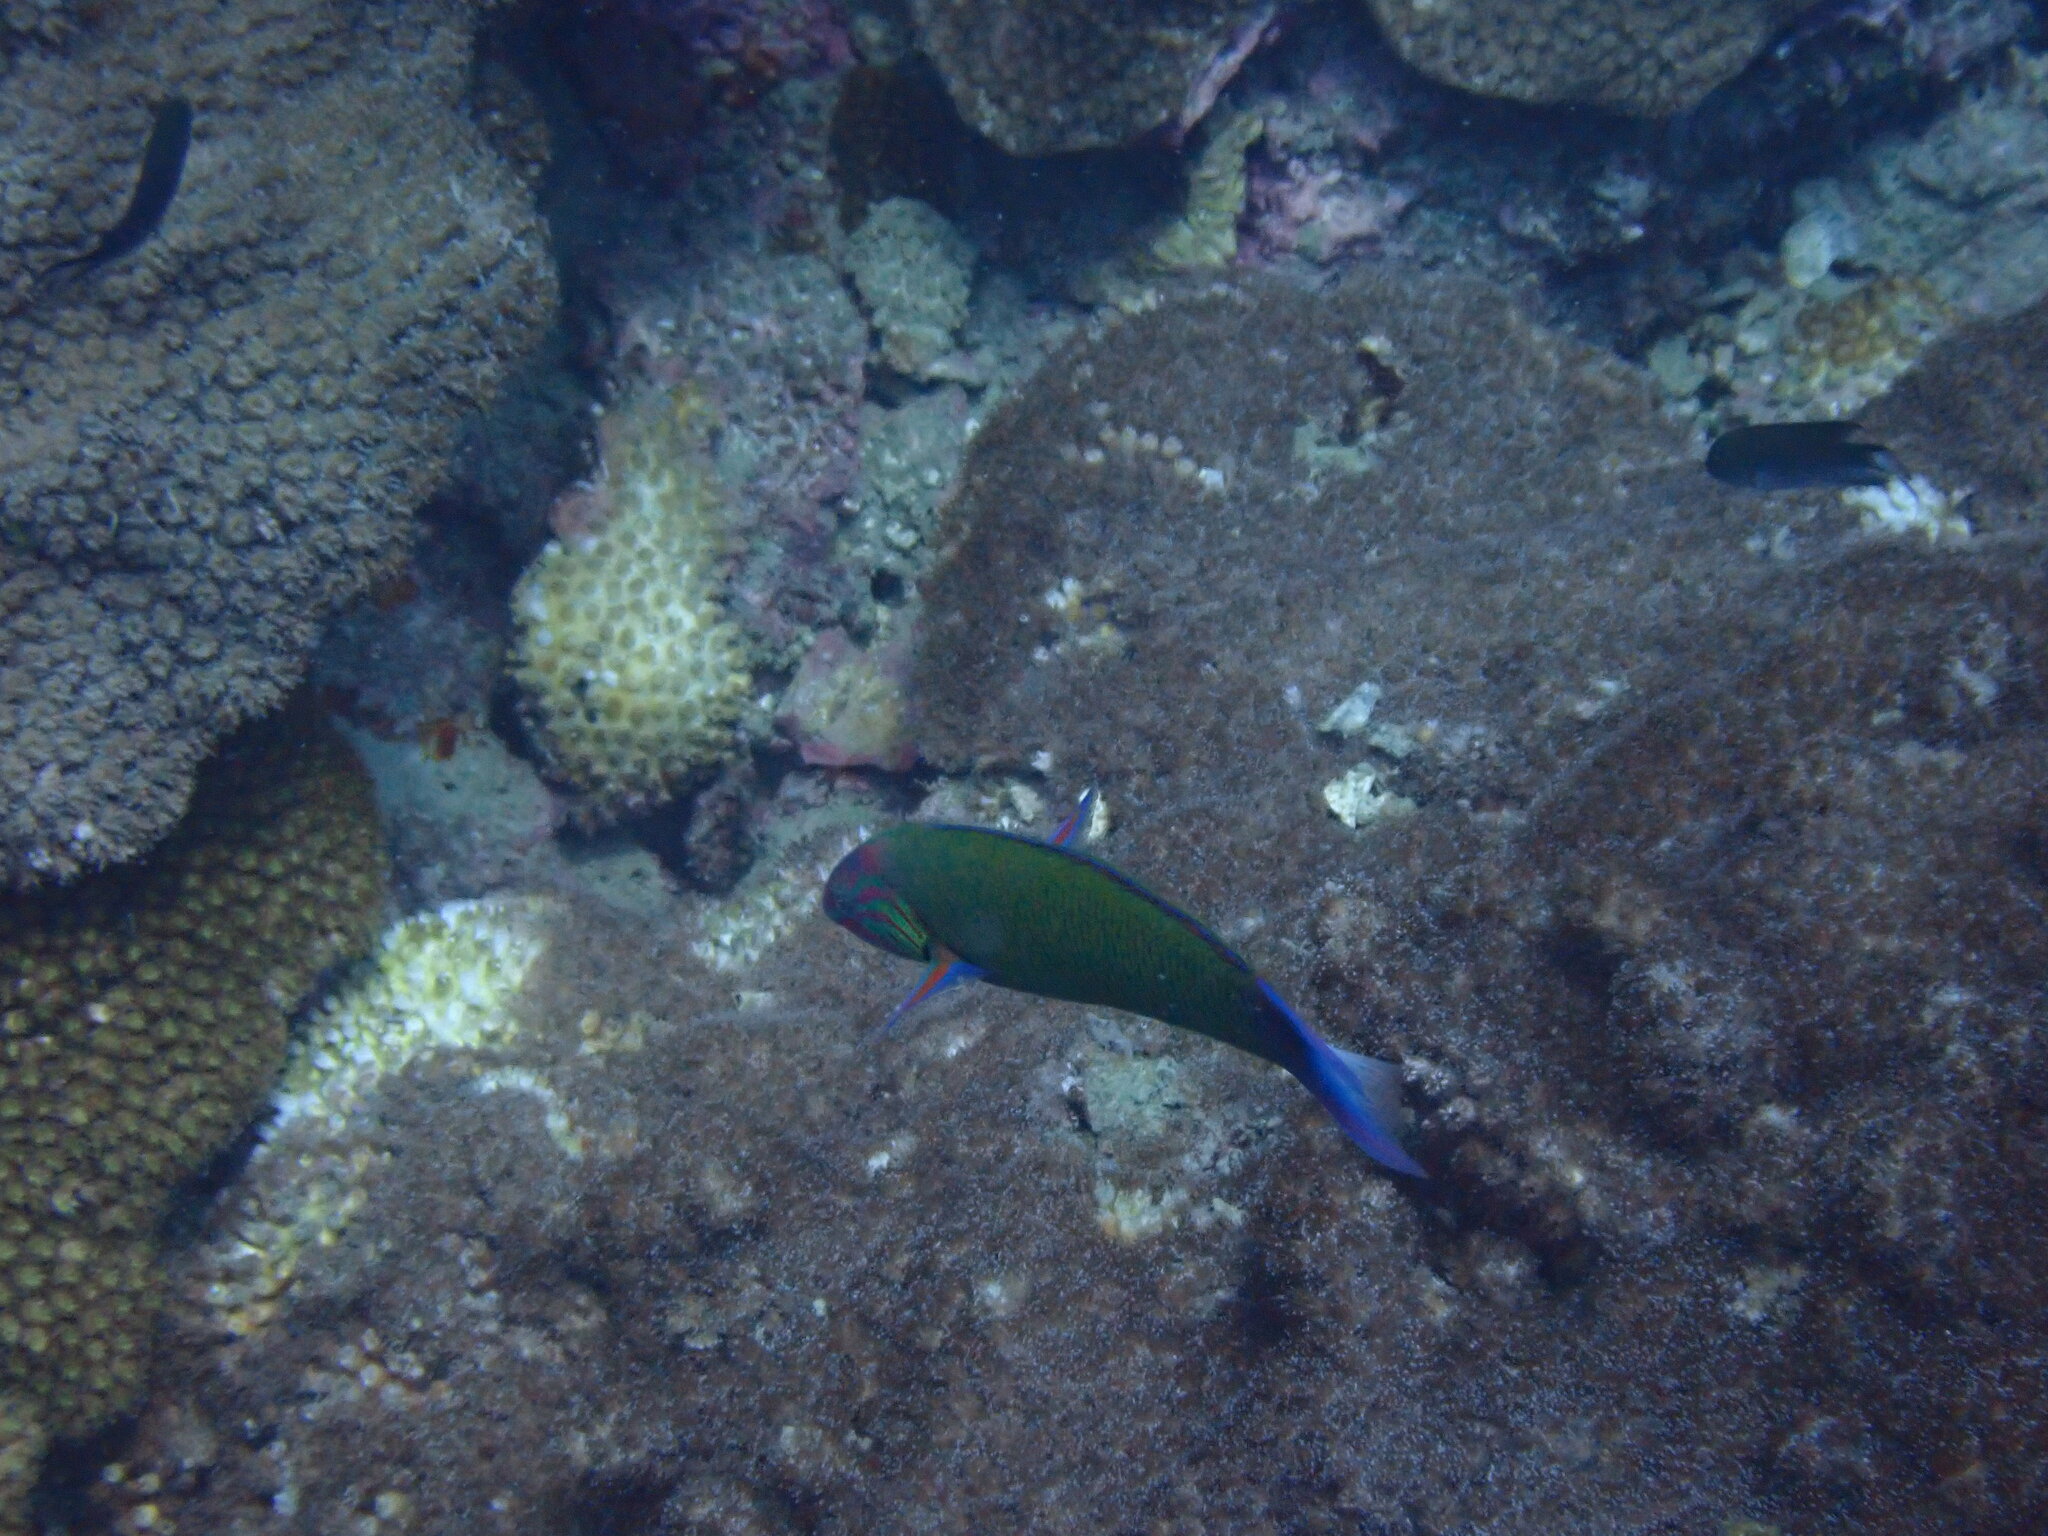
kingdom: Animalia
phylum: Chordata
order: Perciformes
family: Labridae
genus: Thalassoma
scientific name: Thalassoma lunare
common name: Blue wrasse
